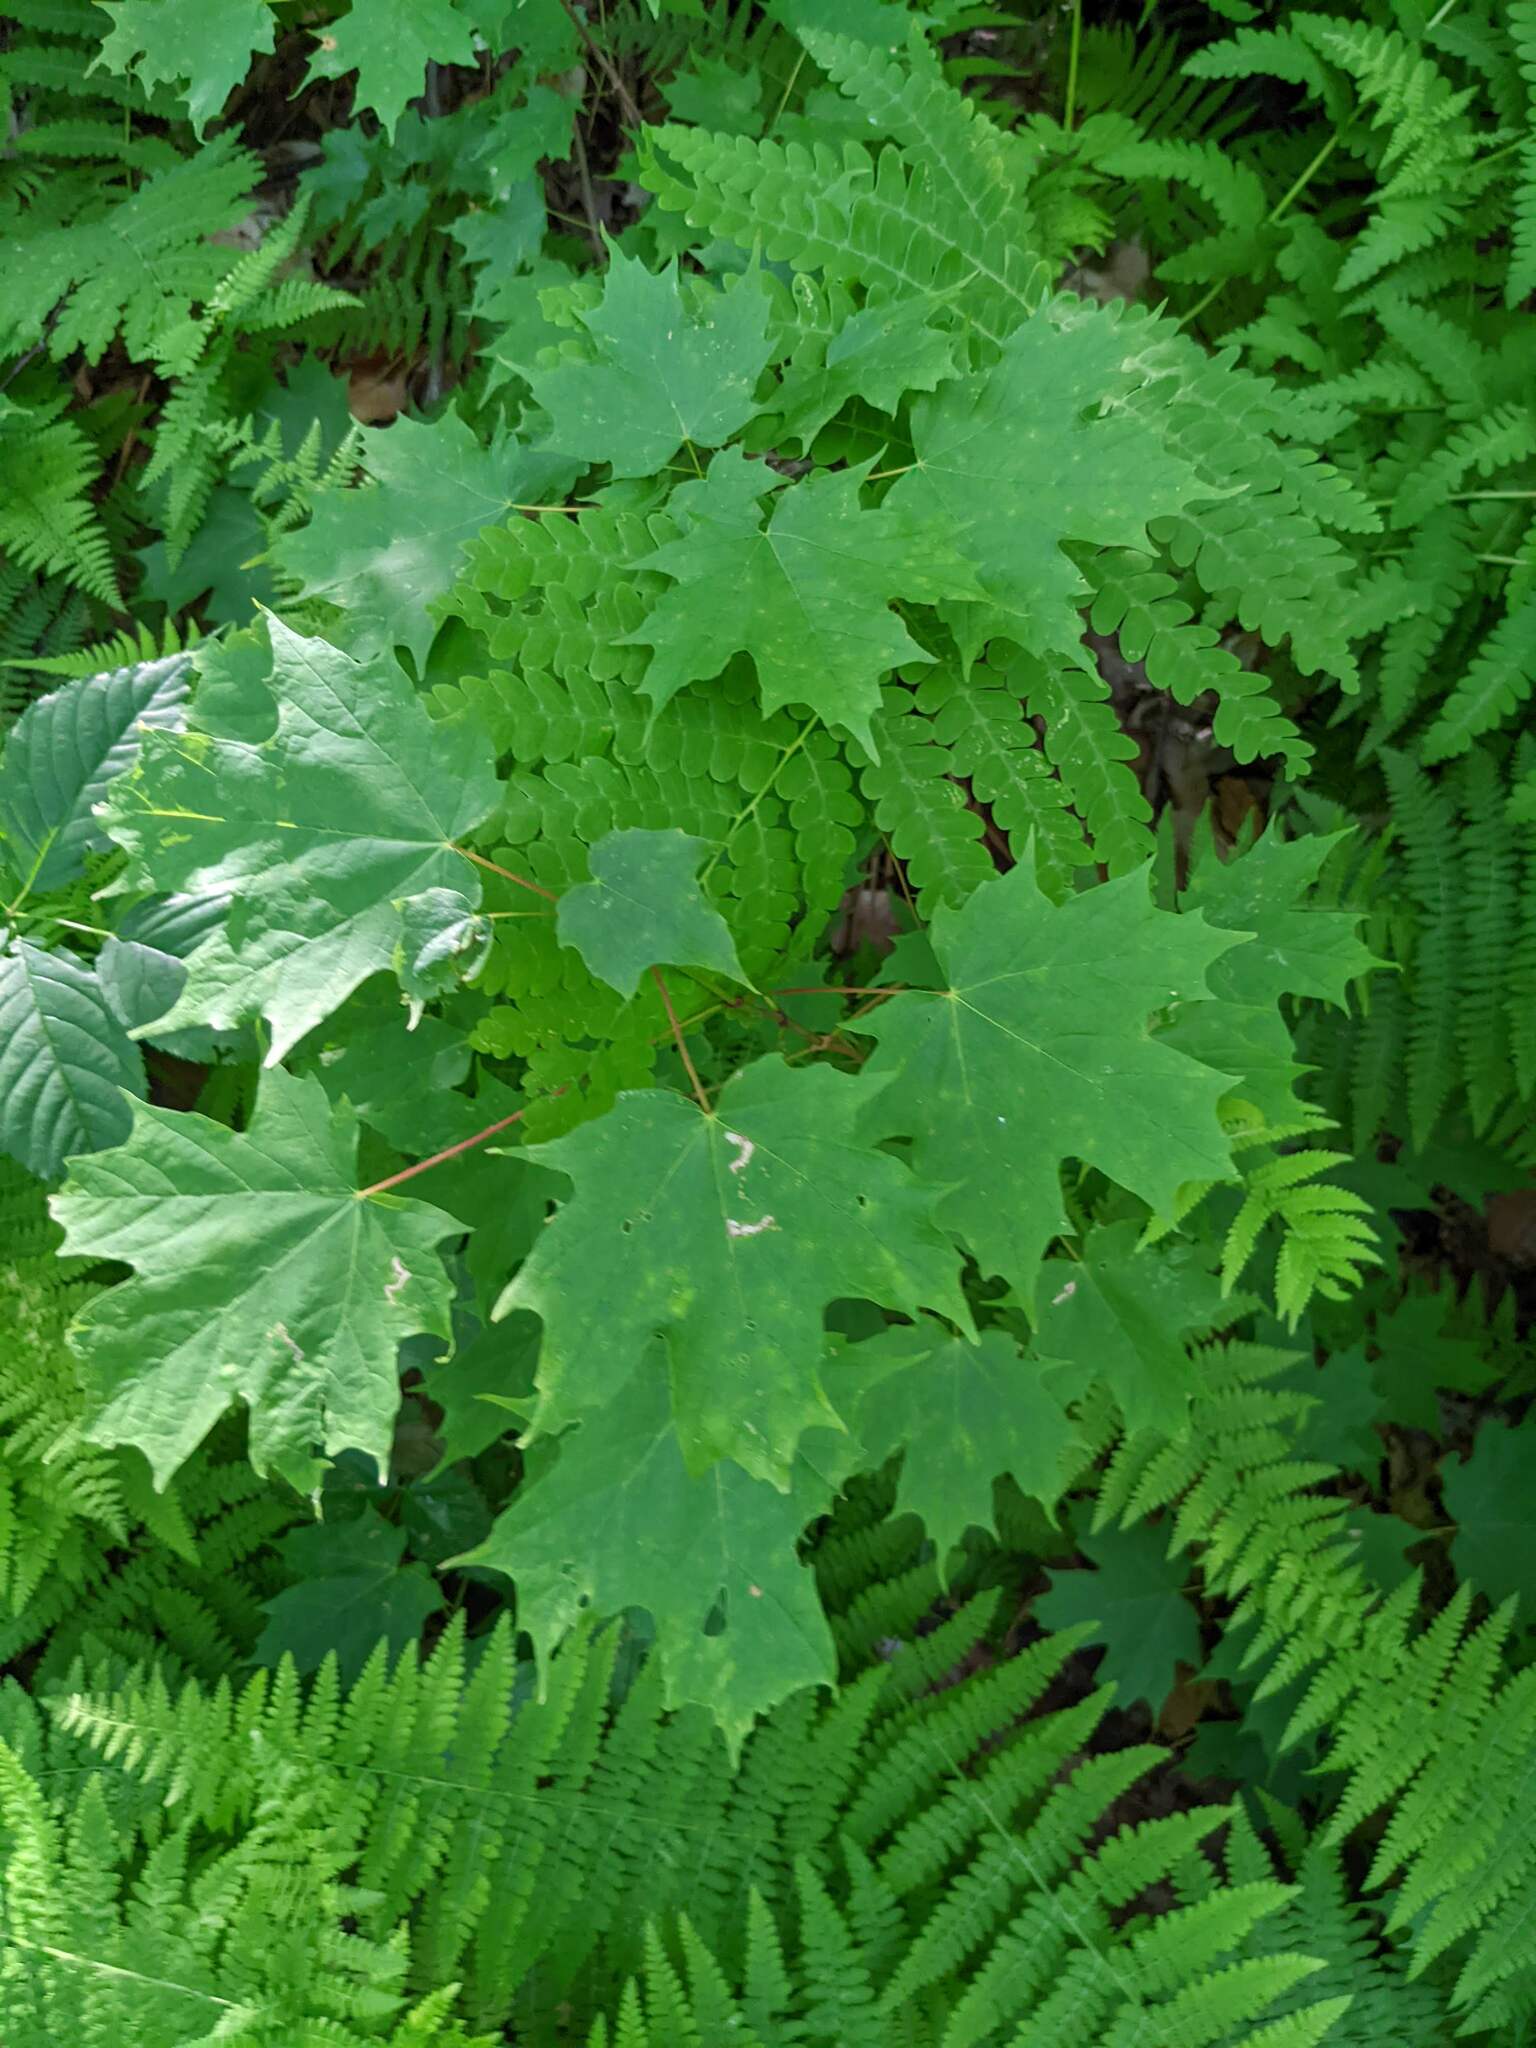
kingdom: Plantae
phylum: Tracheophyta
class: Magnoliopsida
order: Sapindales
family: Sapindaceae
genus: Acer
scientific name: Acer saccharum
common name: Sugar maple
